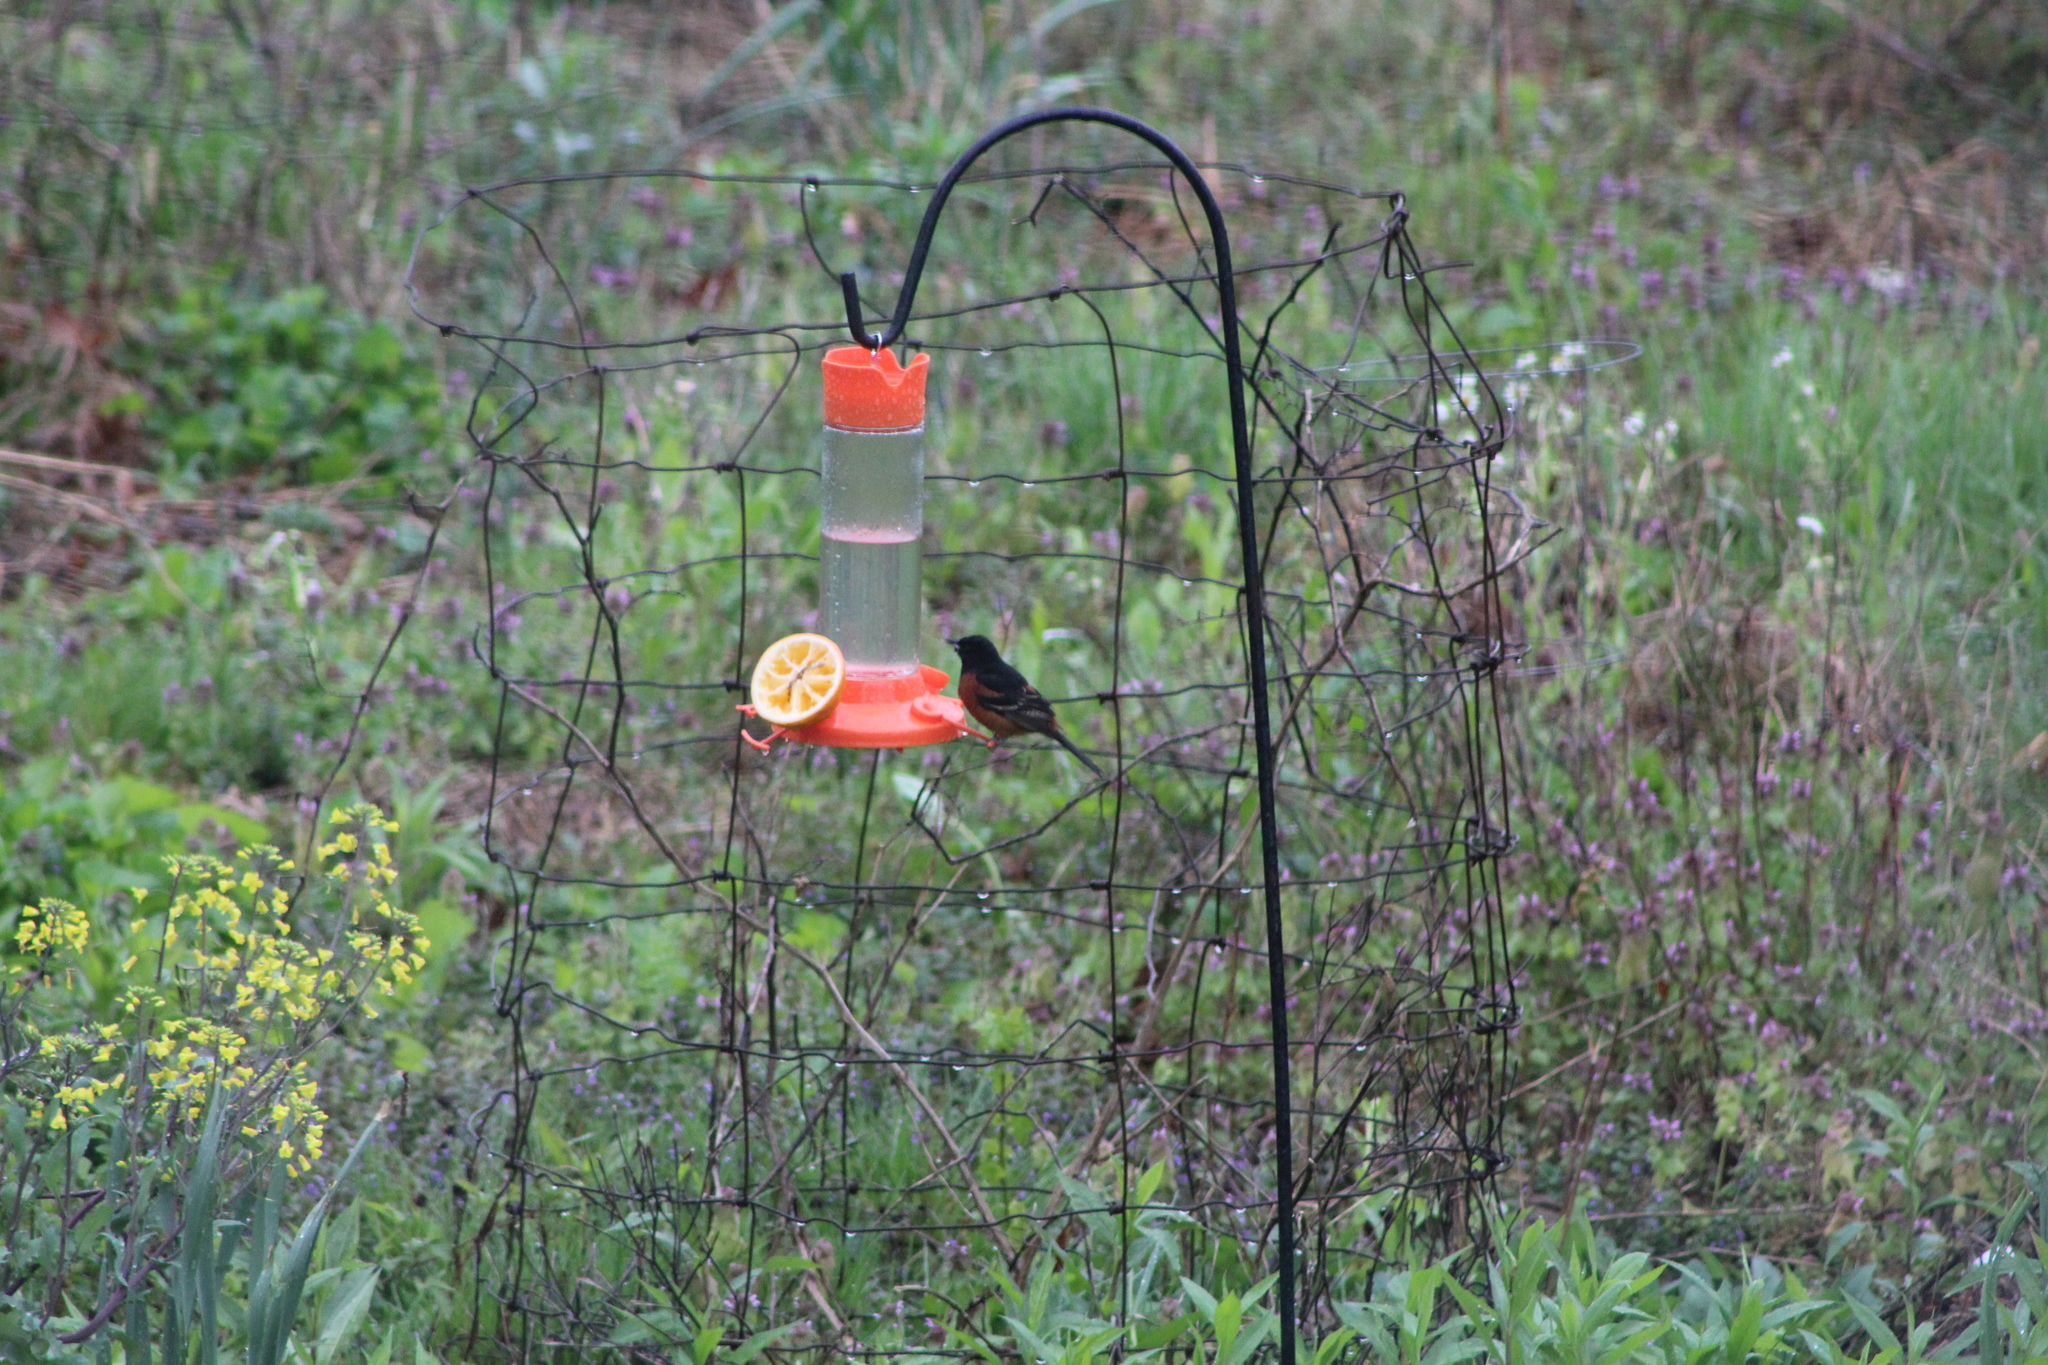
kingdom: Animalia
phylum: Chordata
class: Aves
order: Passeriformes
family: Icteridae
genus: Icterus
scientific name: Icterus spurius
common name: Orchard oriole
